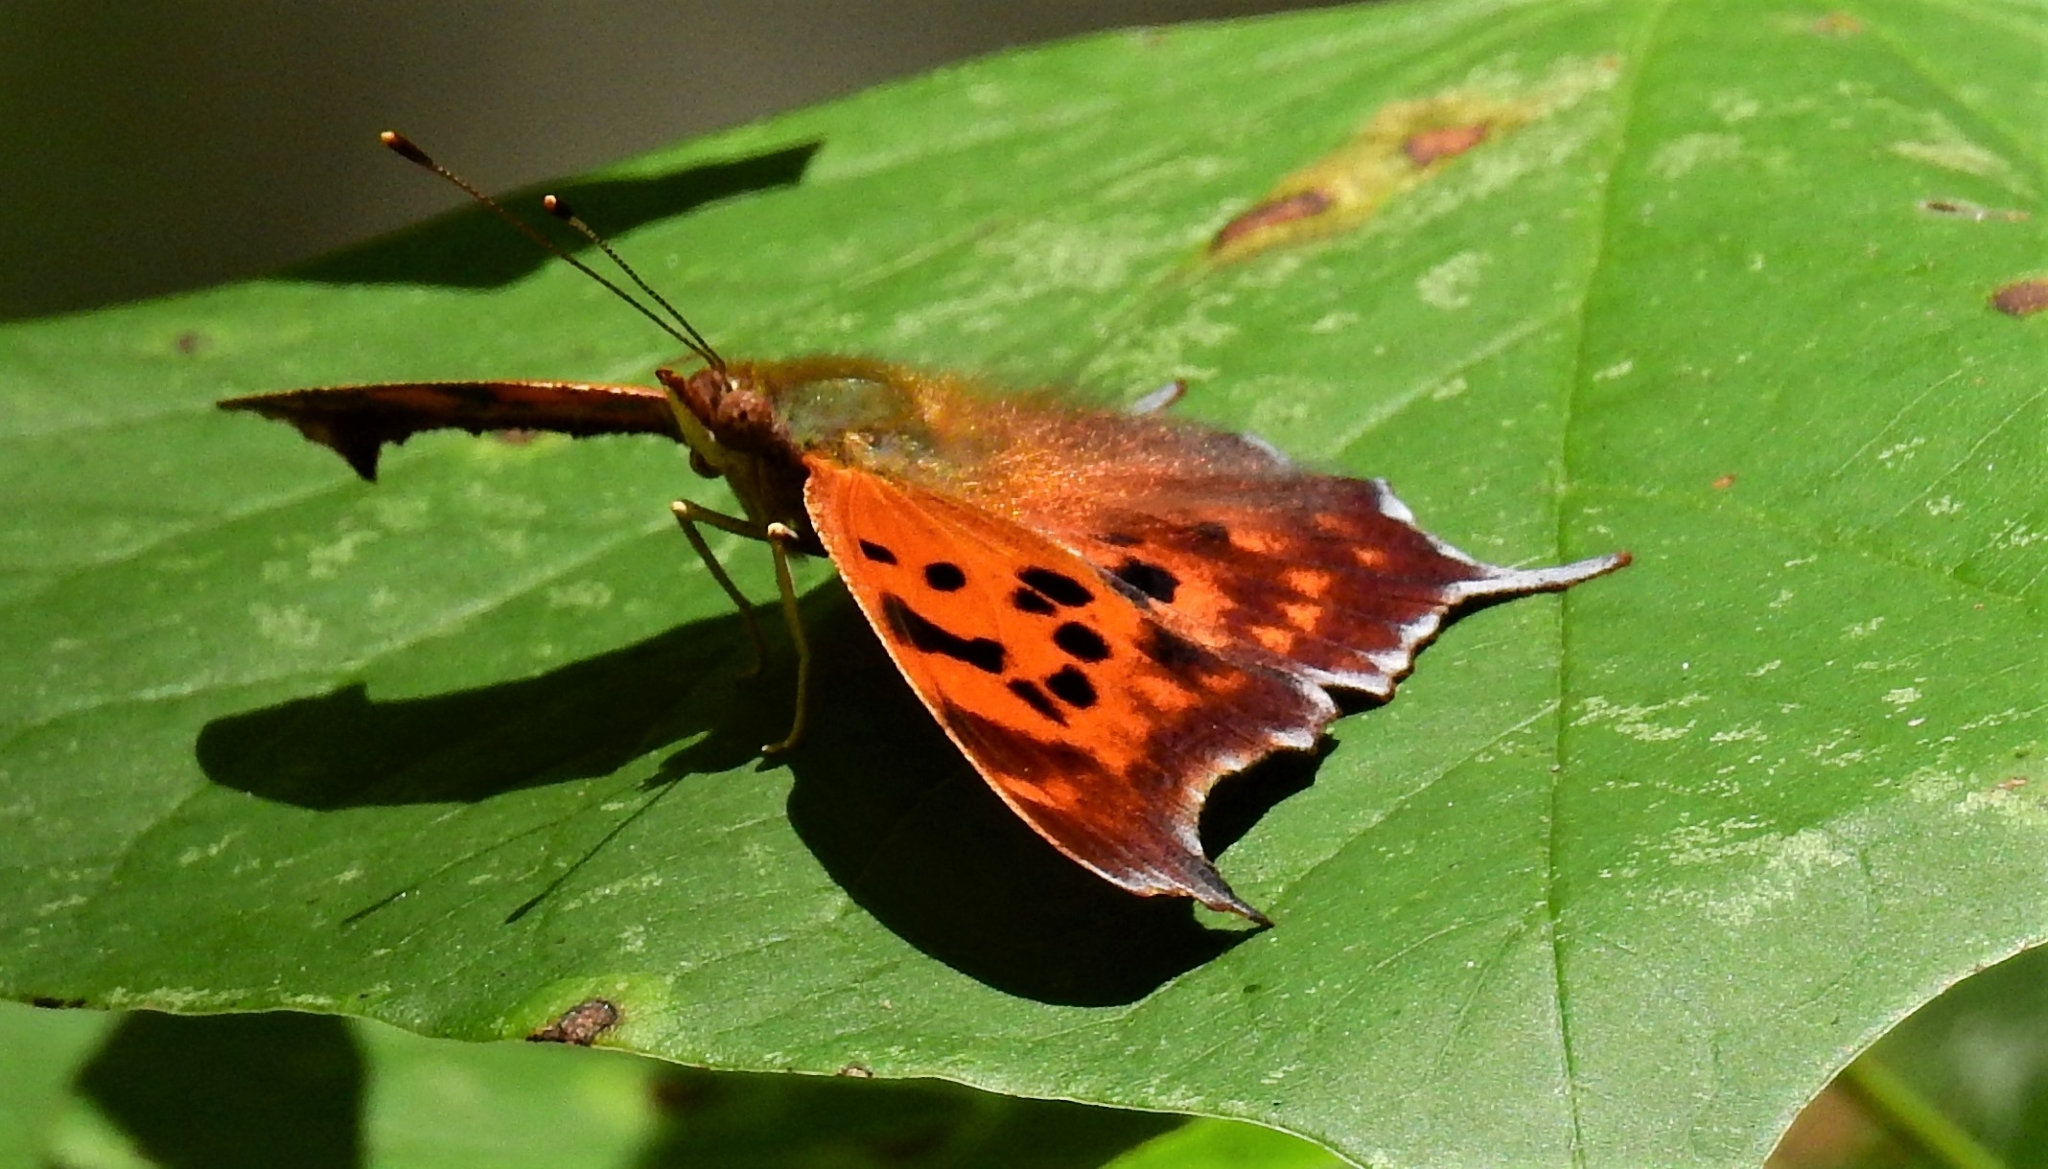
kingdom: Animalia
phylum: Arthropoda
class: Insecta
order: Lepidoptera
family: Nymphalidae
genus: Polygonia
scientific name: Polygonia interrogationis
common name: Question mark
